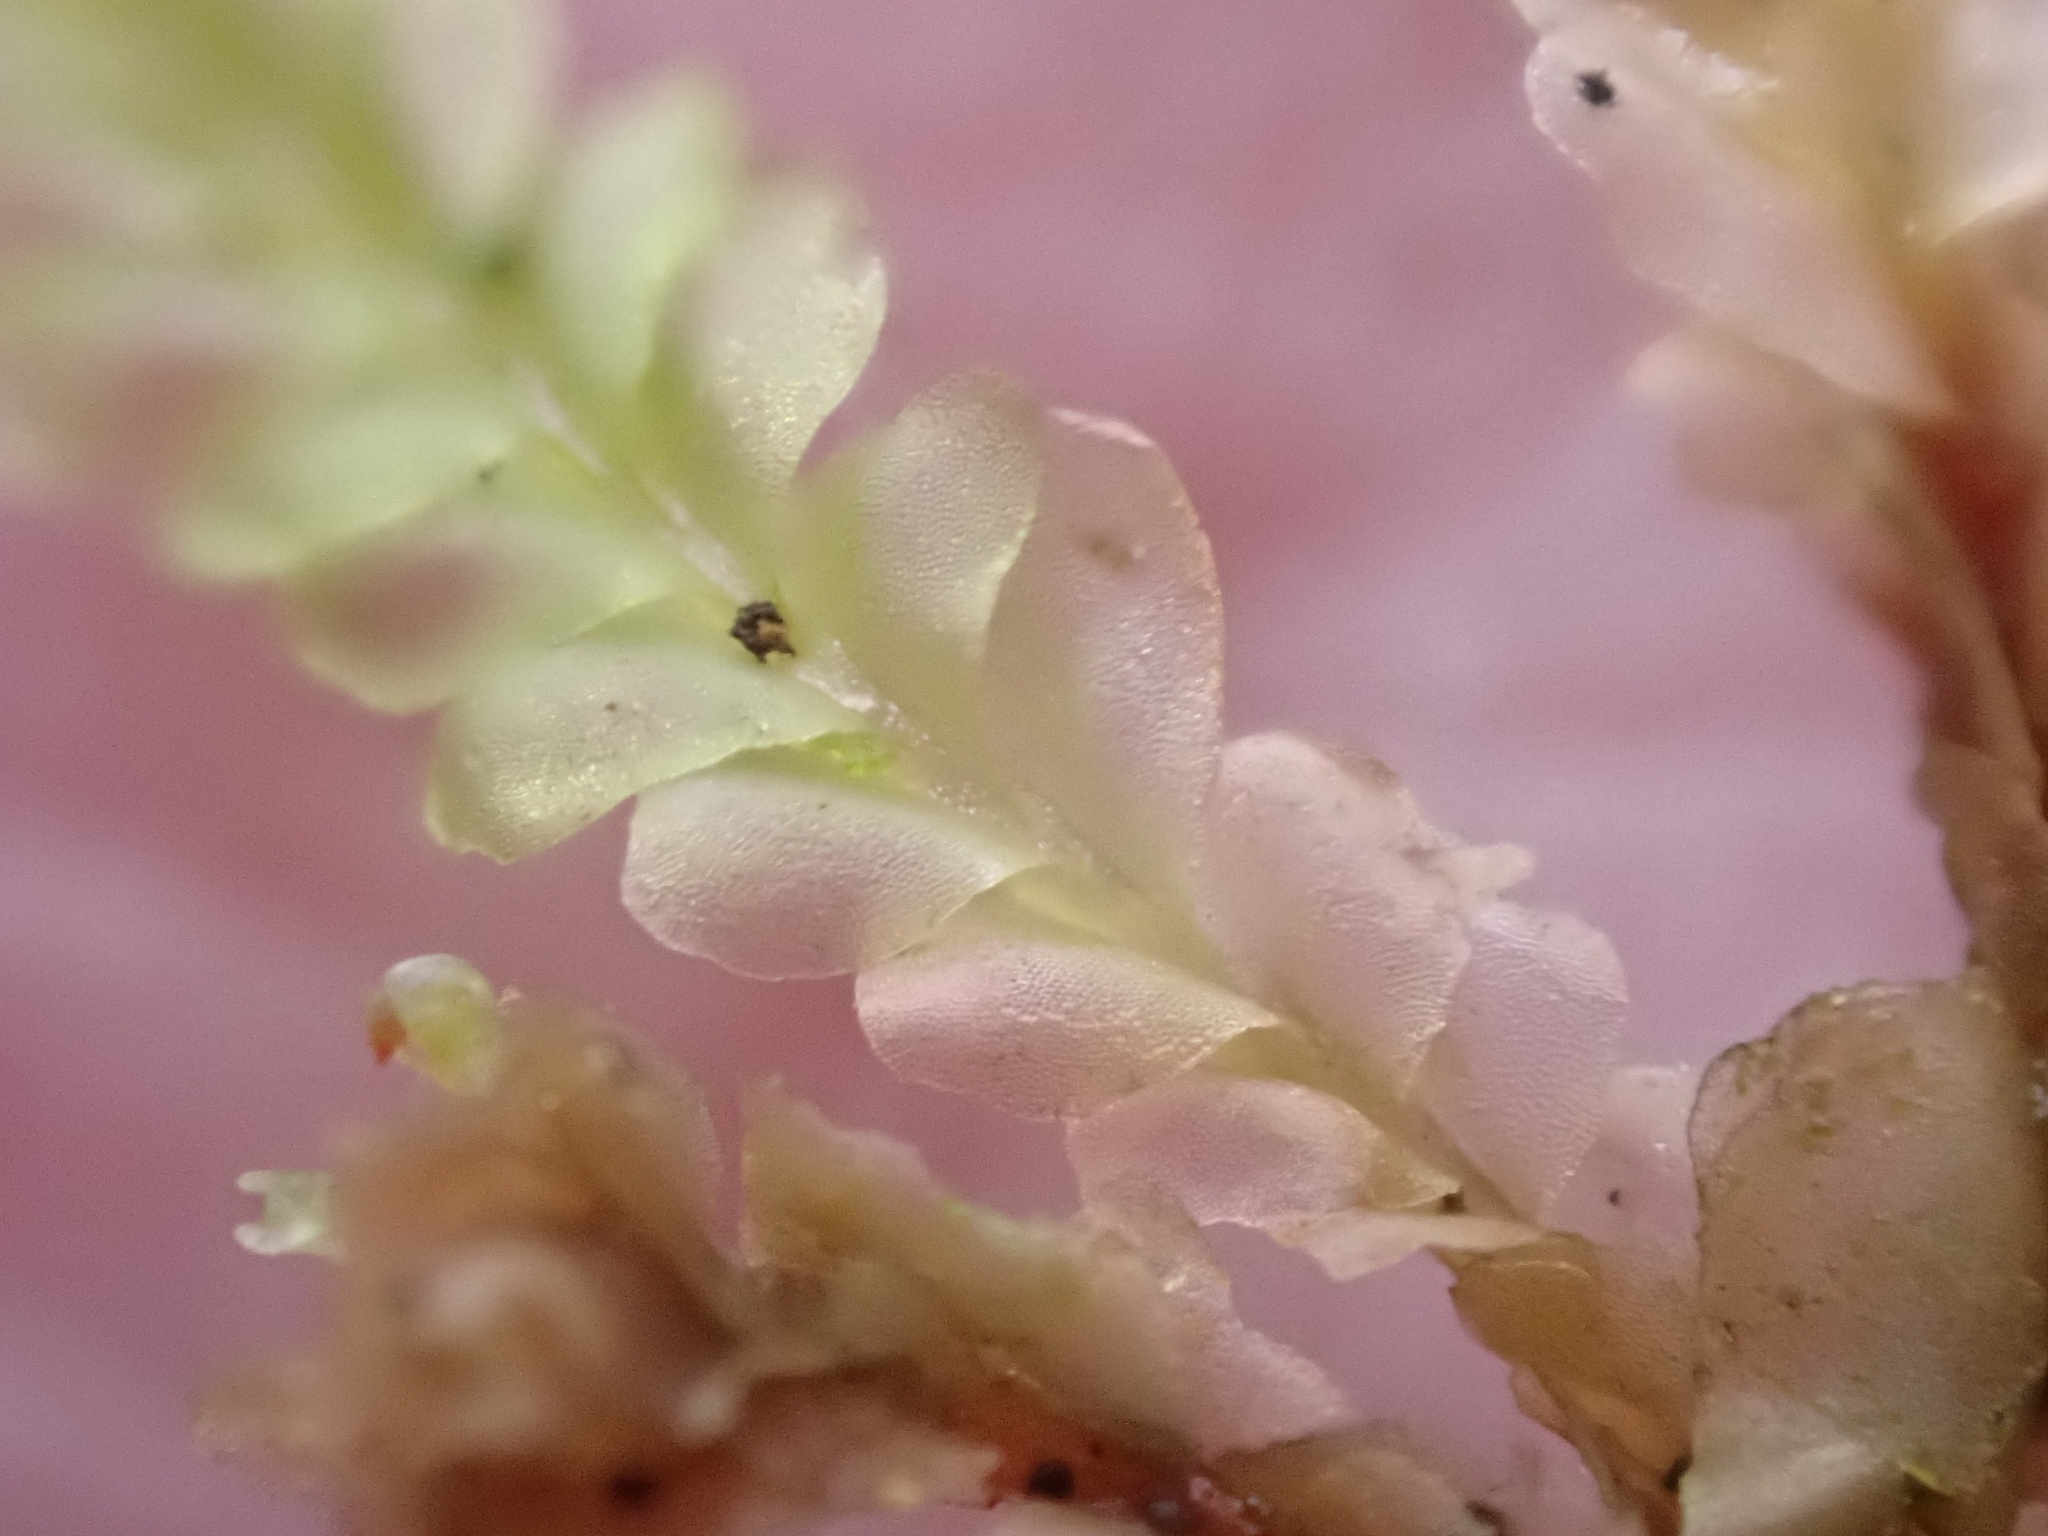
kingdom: Plantae
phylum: Marchantiophyta
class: Jungermanniopsida
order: Jungermanniales
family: Lophocoleaceae
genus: Lophocolea
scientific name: Lophocolea semiteres
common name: Southern crestwort
